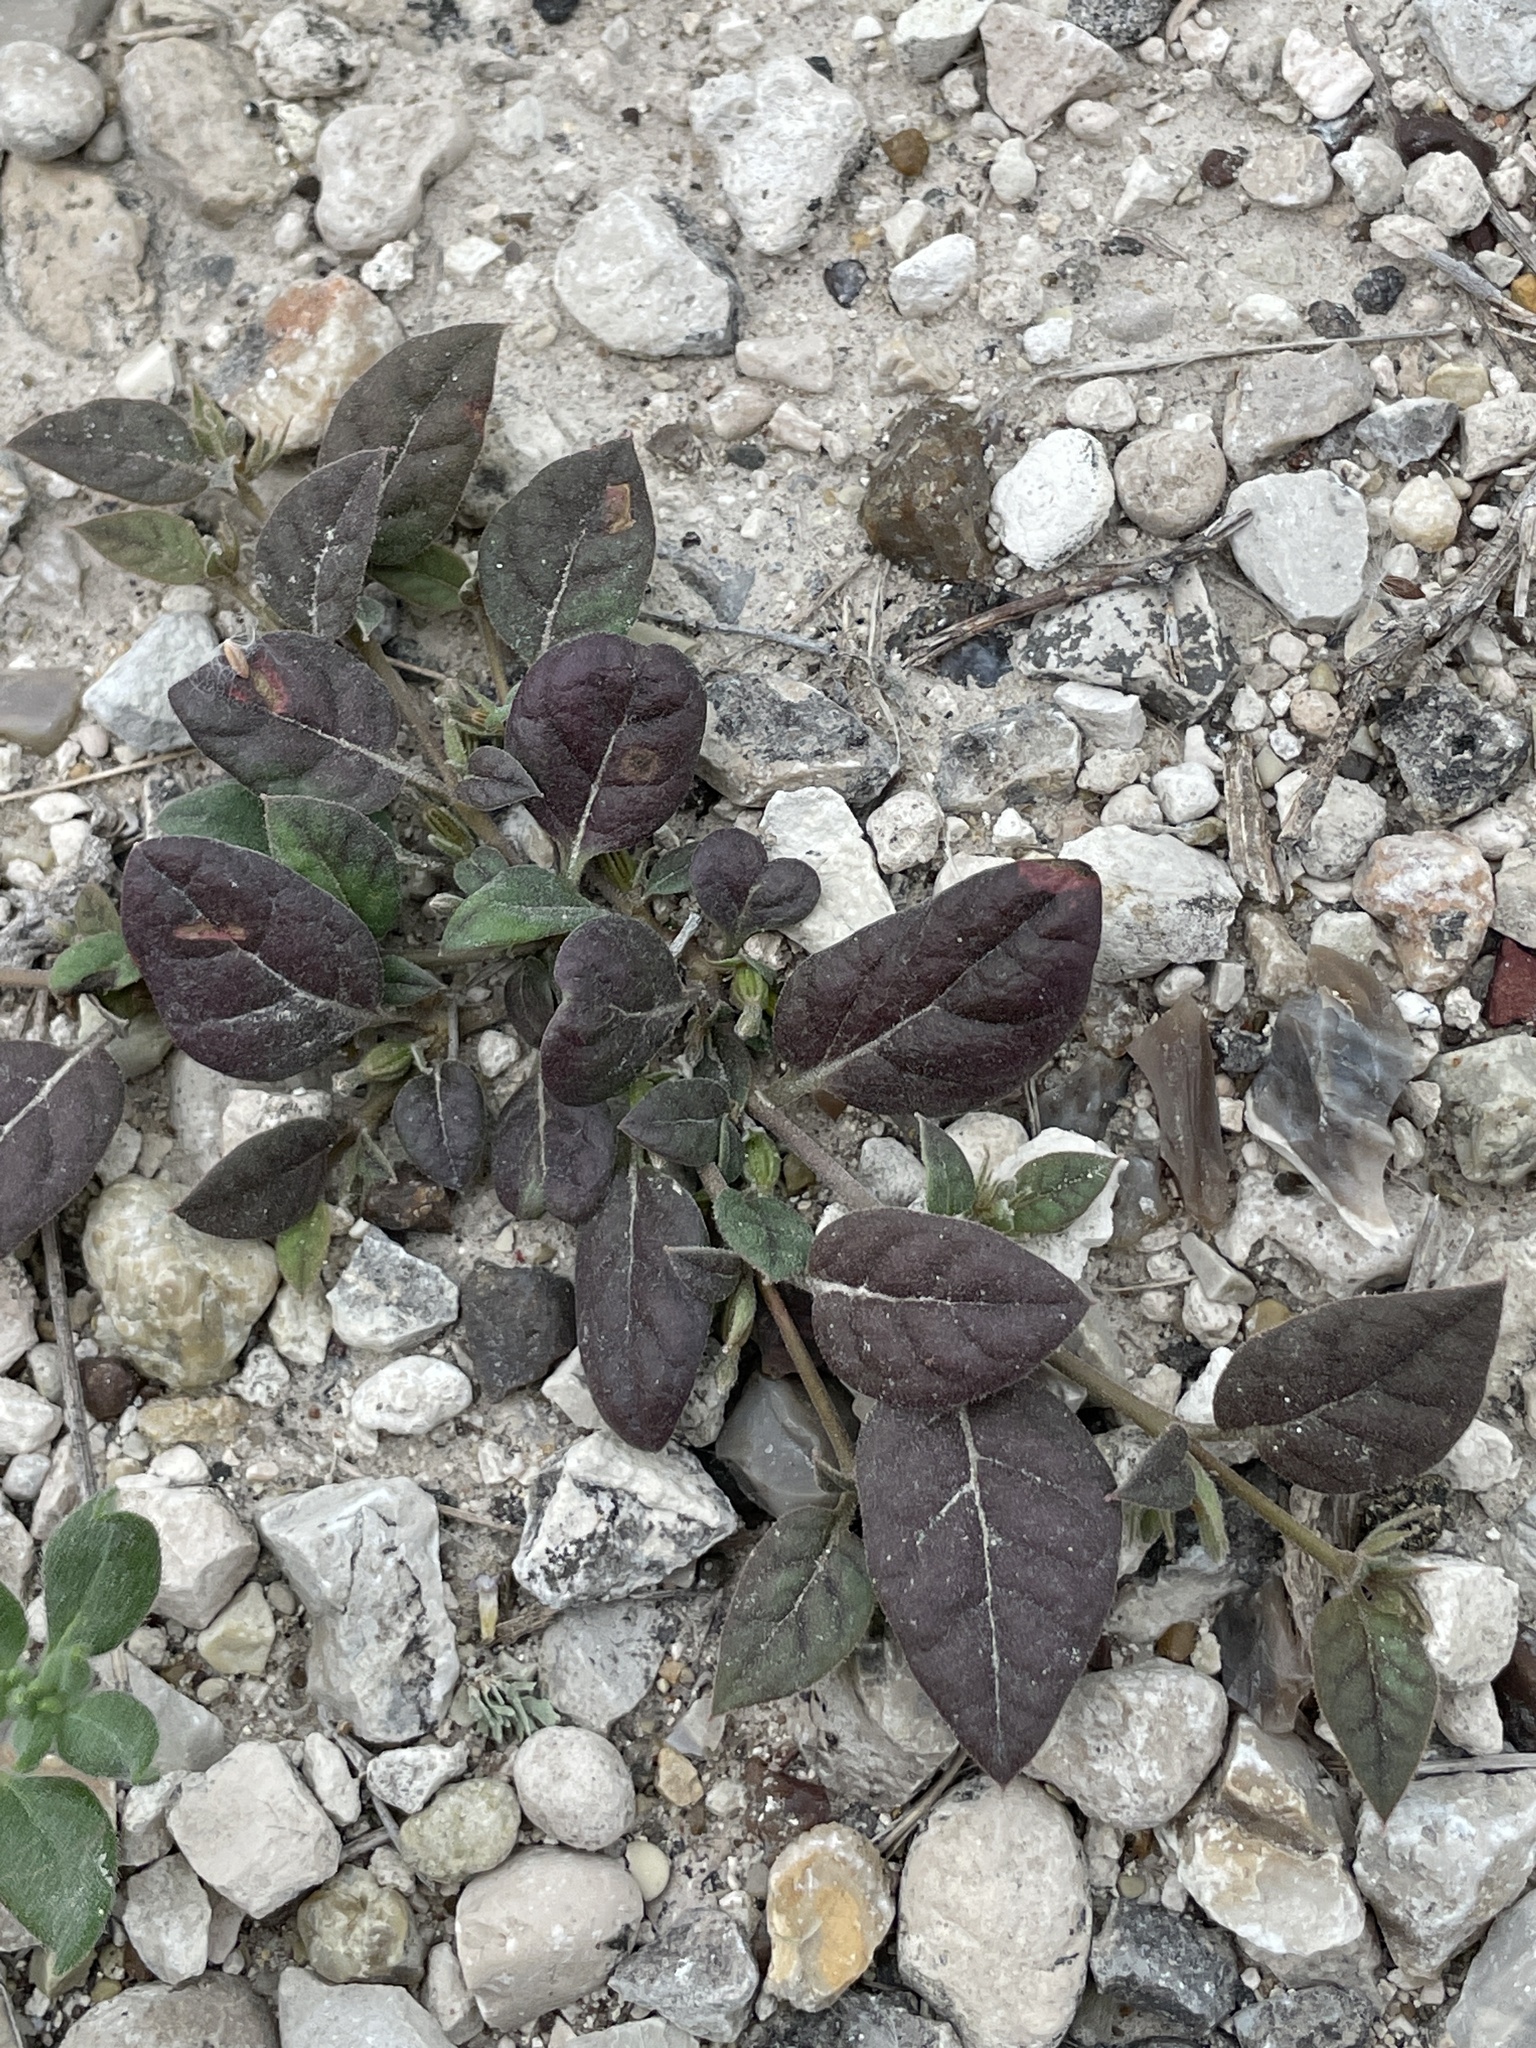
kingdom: Plantae
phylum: Tracheophyta
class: Magnoliopsida
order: Caryophyllales
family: Nyctaginaceae
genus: Acleisanthes
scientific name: Acleisanthes anisophylla
